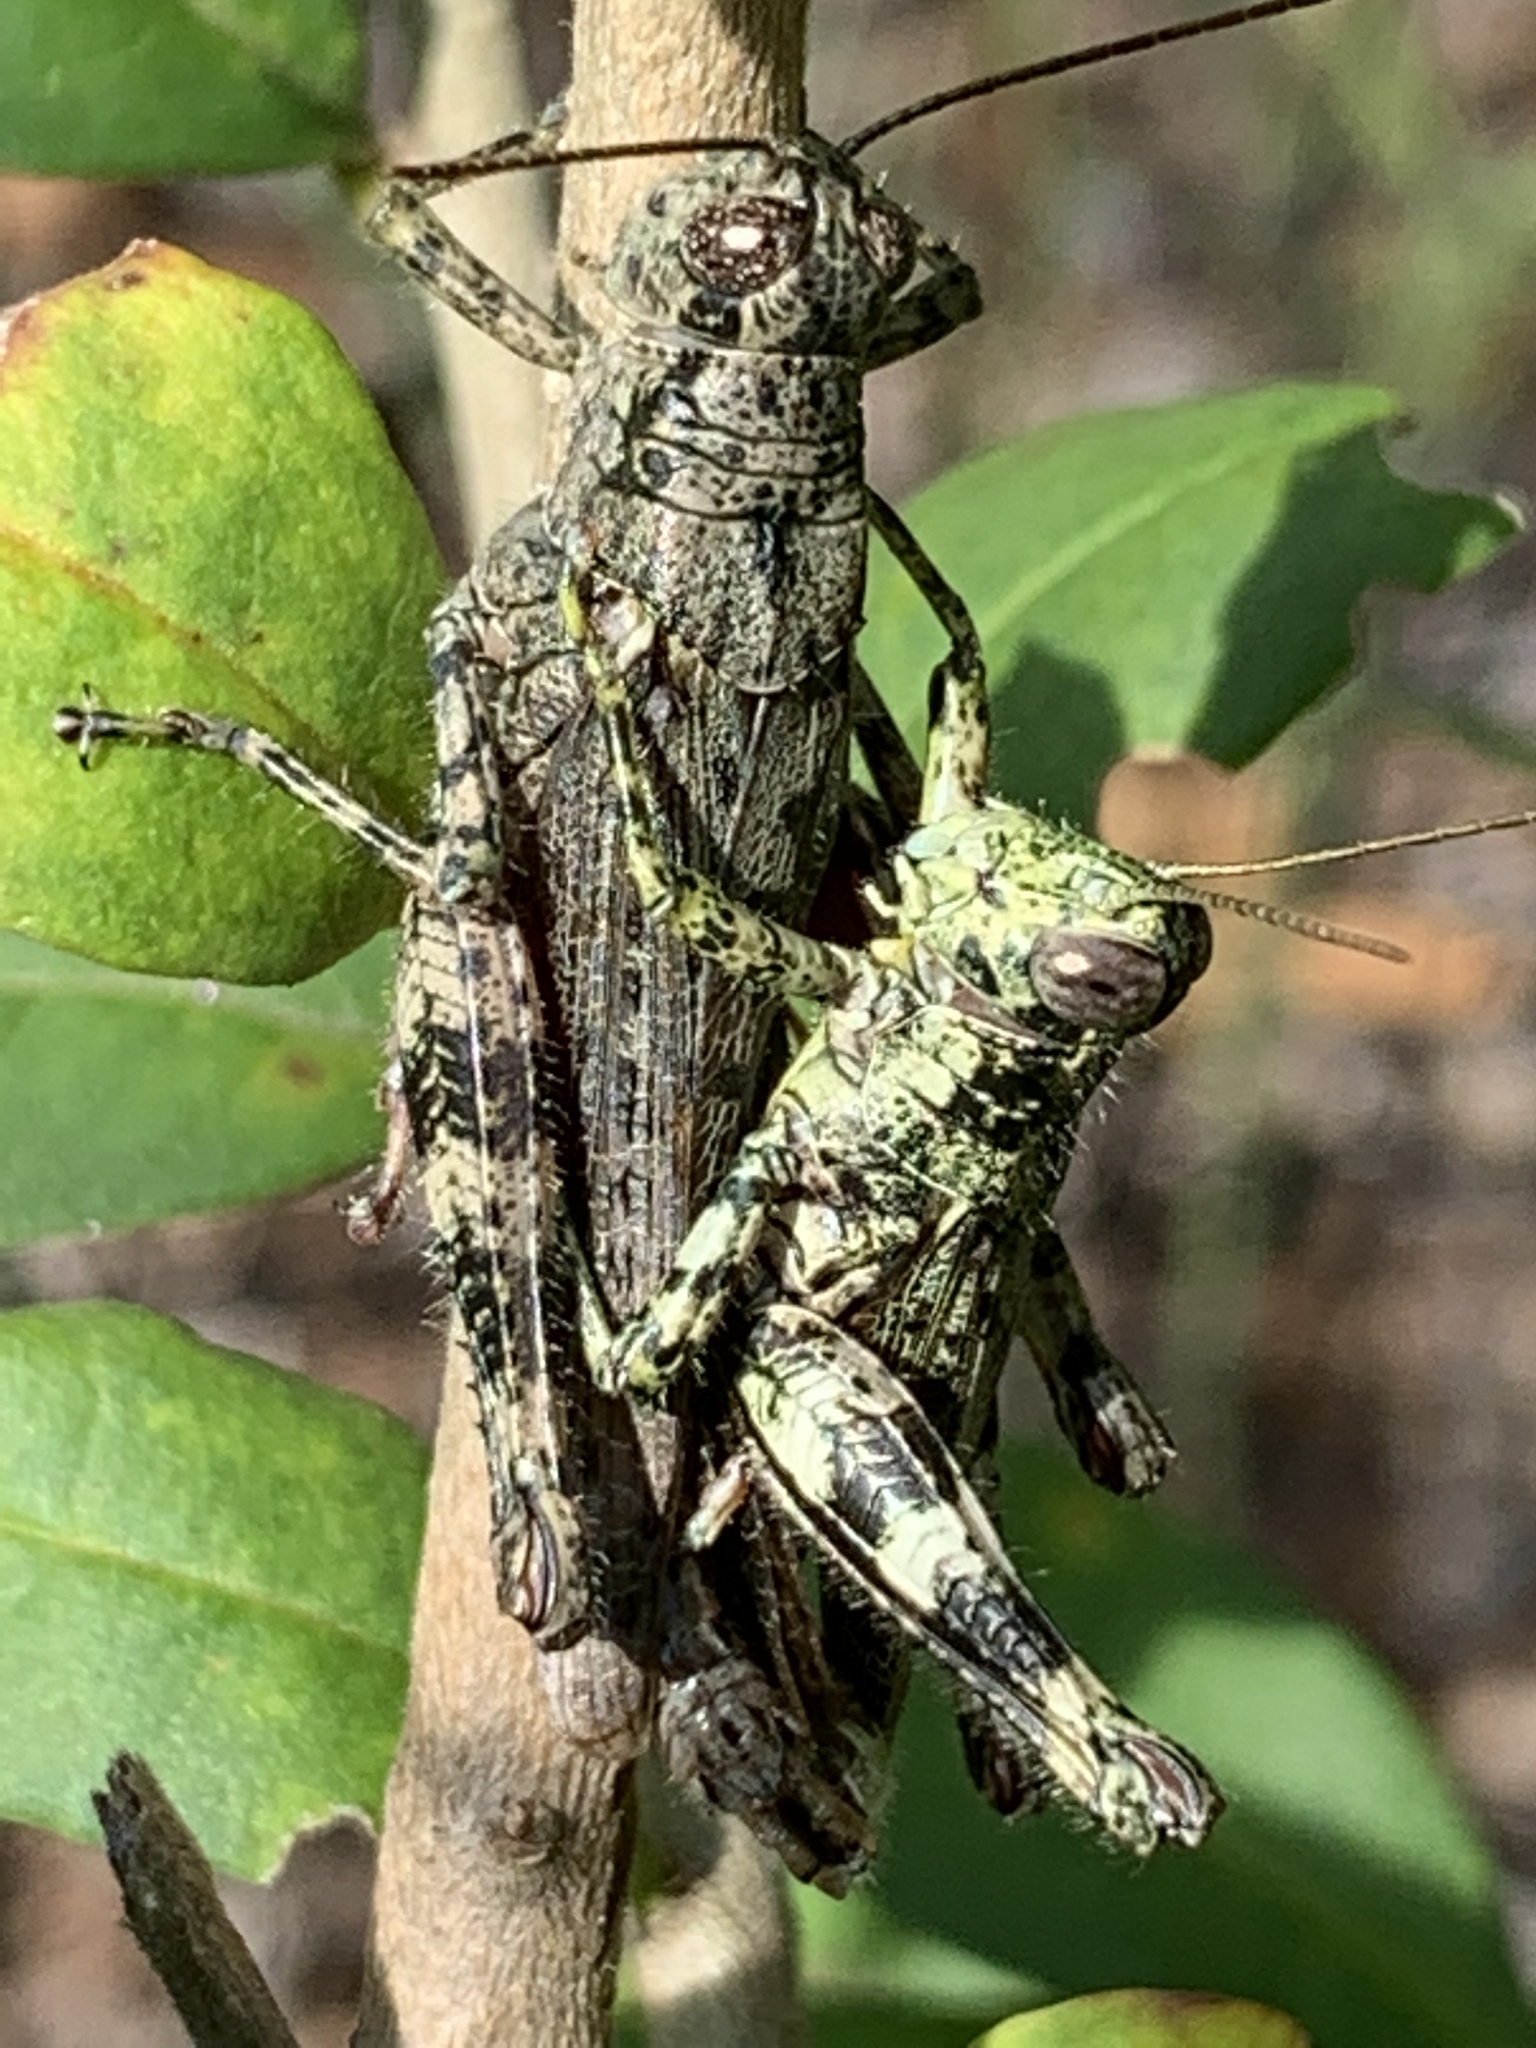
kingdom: Animalia
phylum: Arthropoda
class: Insecta
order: Orthoptera
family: Acrididae
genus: Melanoplus
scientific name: Melanoplus punctulatus
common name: Pine-tree spur-throat grasshopper
